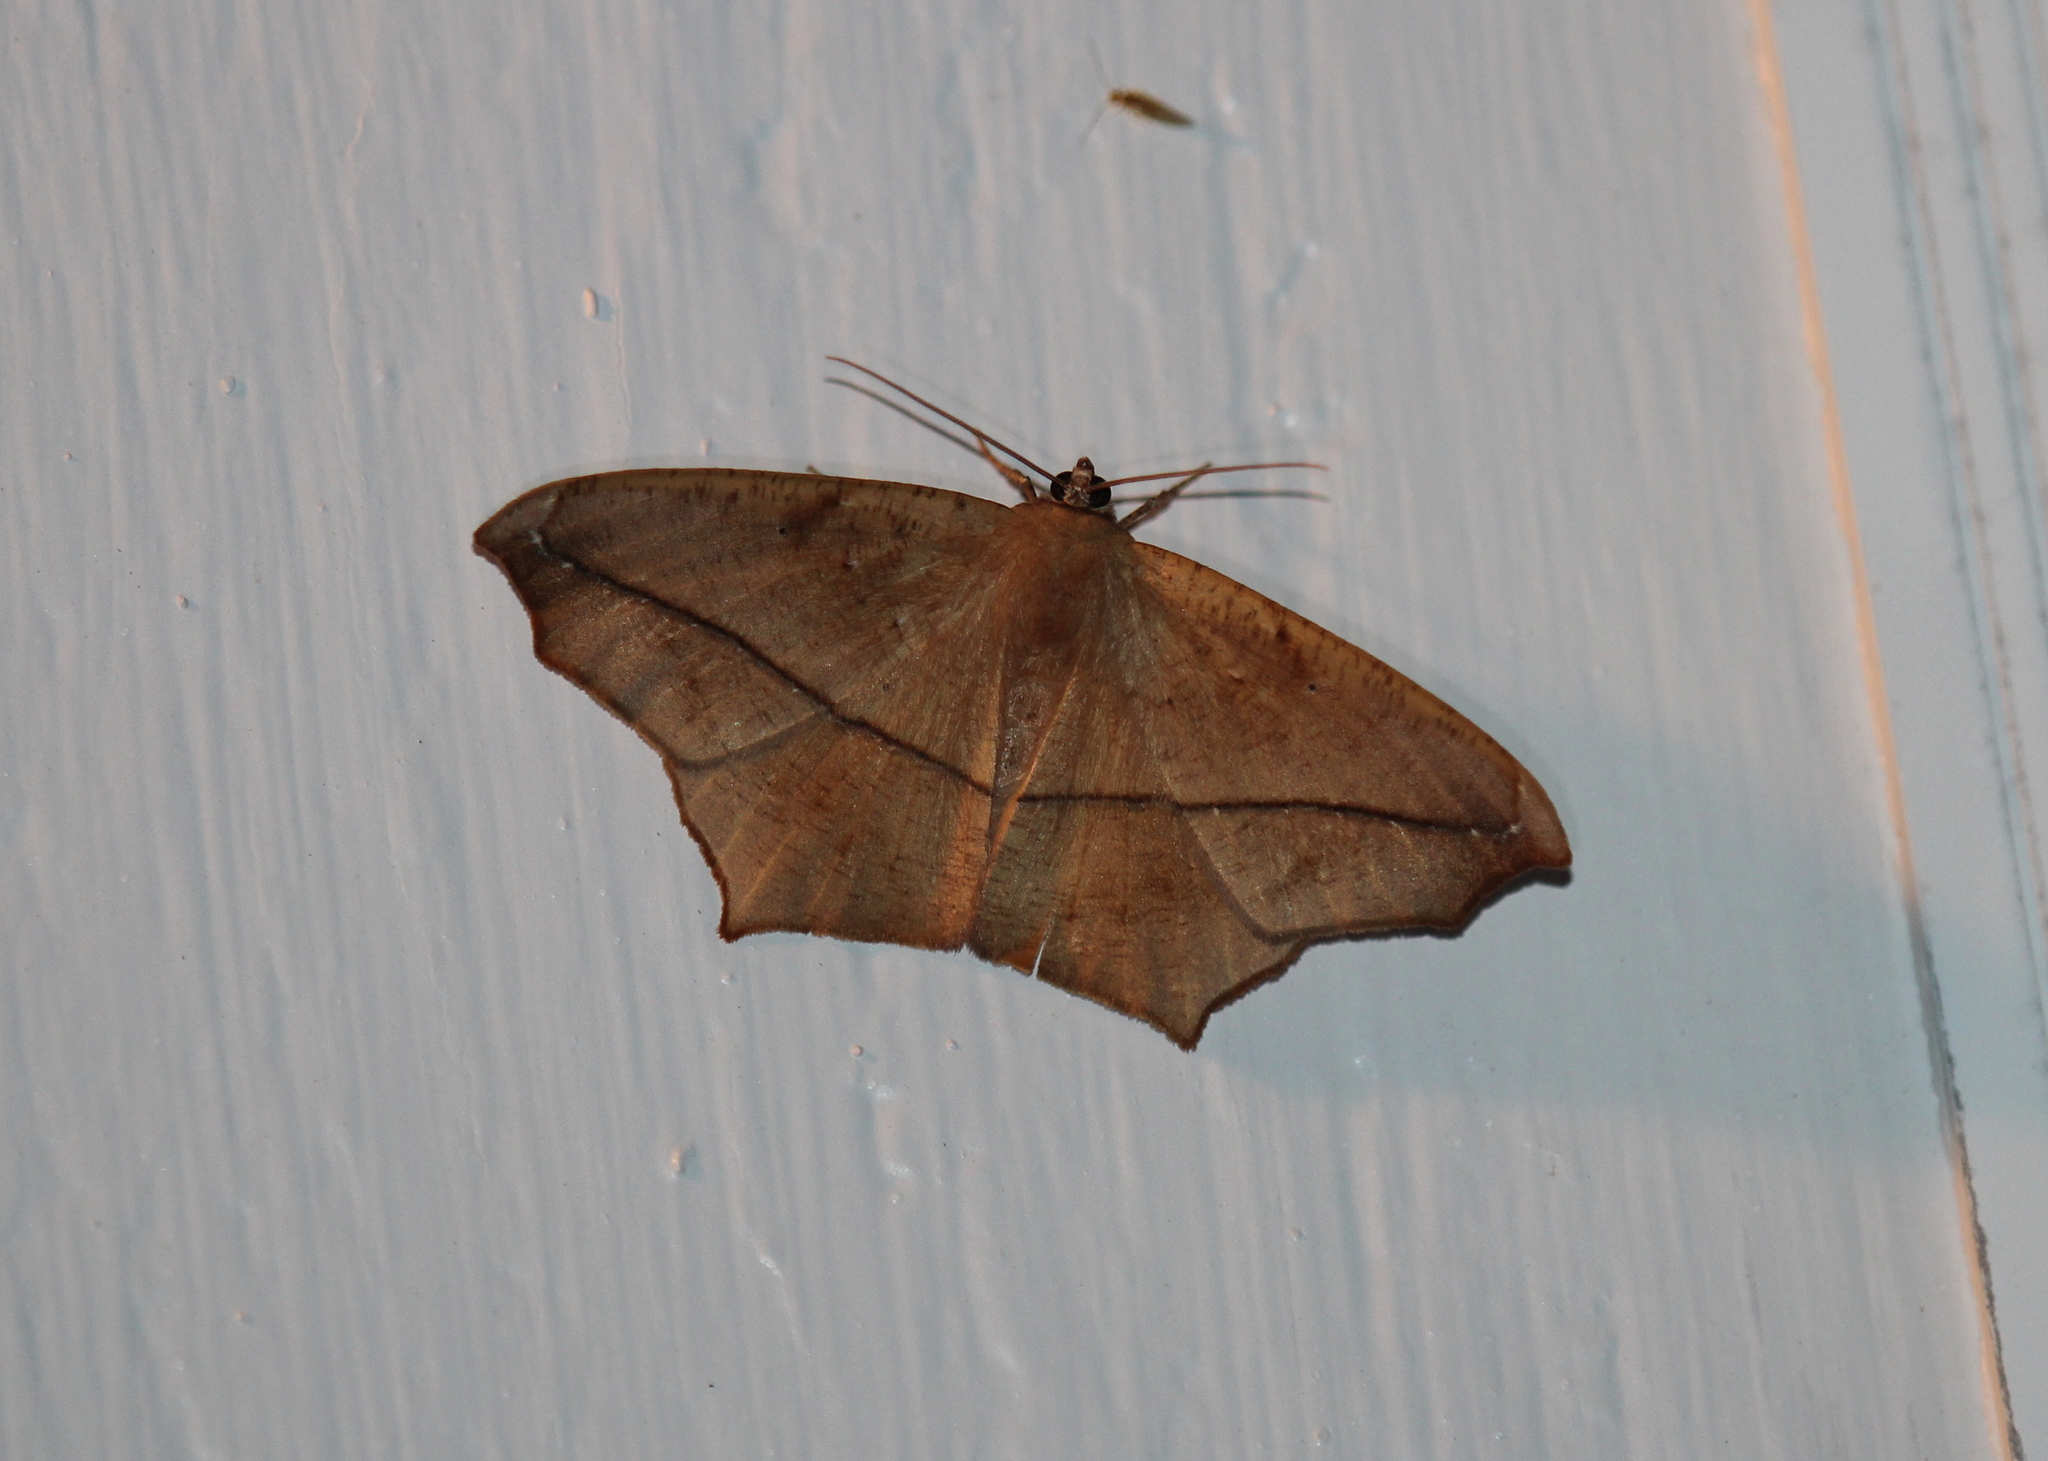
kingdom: Animalia
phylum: Arthropoda
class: Insecta
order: Lepidoptera
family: Geometridae
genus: Prochoerodes
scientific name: Prochoerodes lineola
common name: Large maple spanworm
